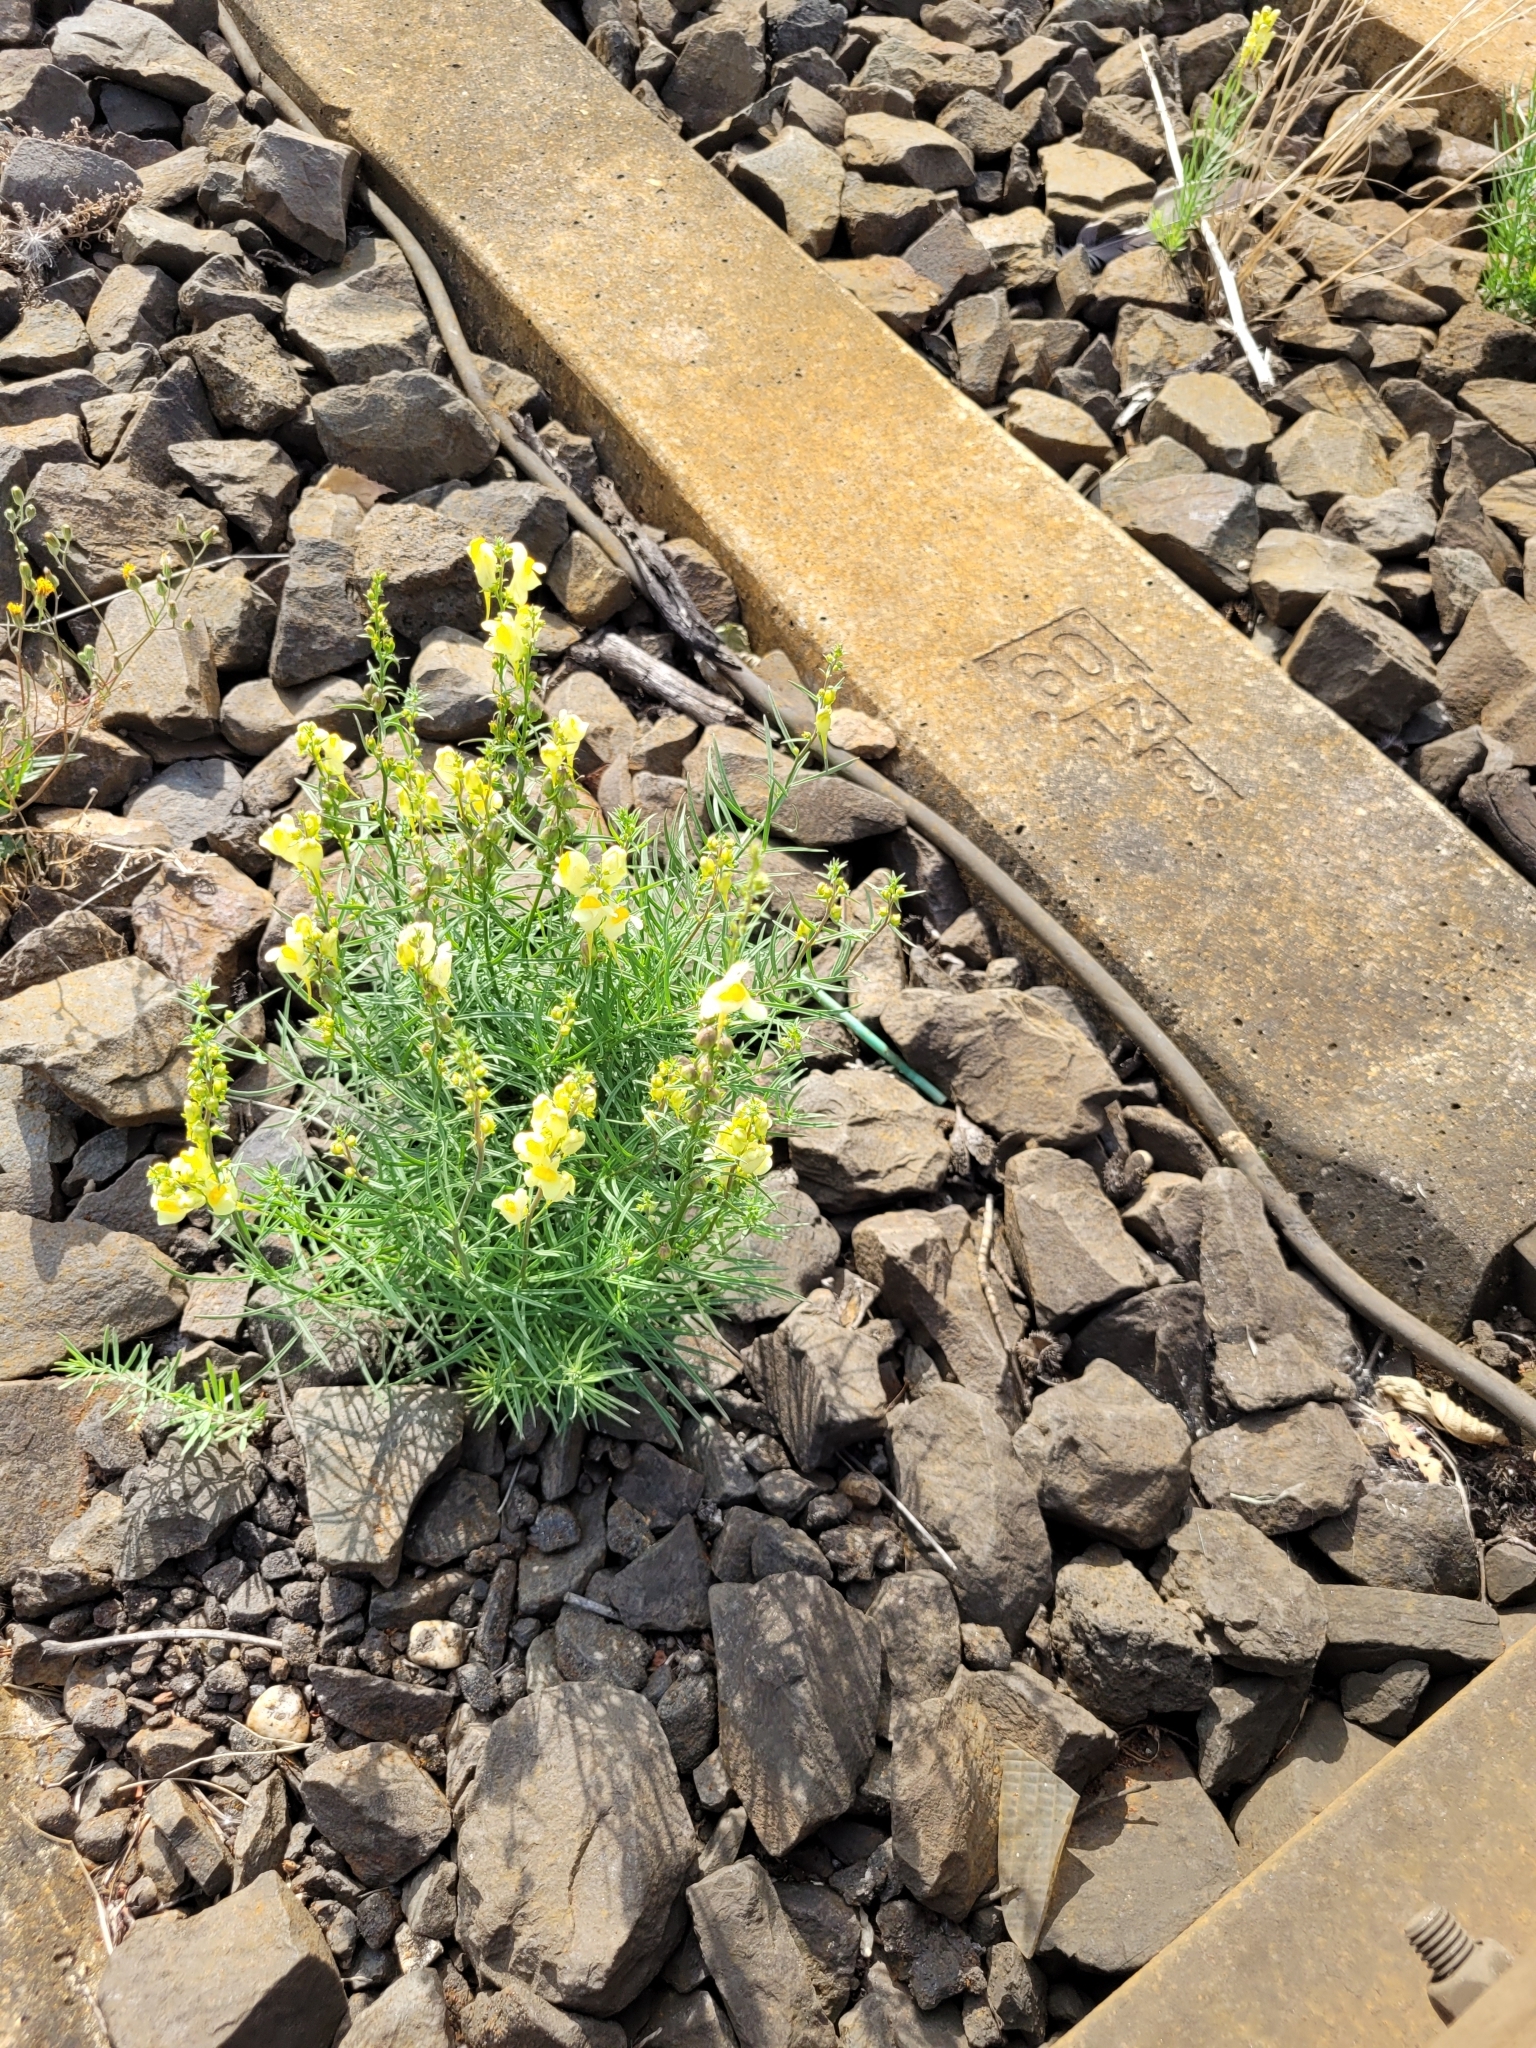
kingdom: Plantae
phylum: Tracheophyta
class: Magnoliopsida
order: Lamiales
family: Plantaginaceae
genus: Linaria
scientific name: Linaria vulgaris
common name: Butter and eggs
